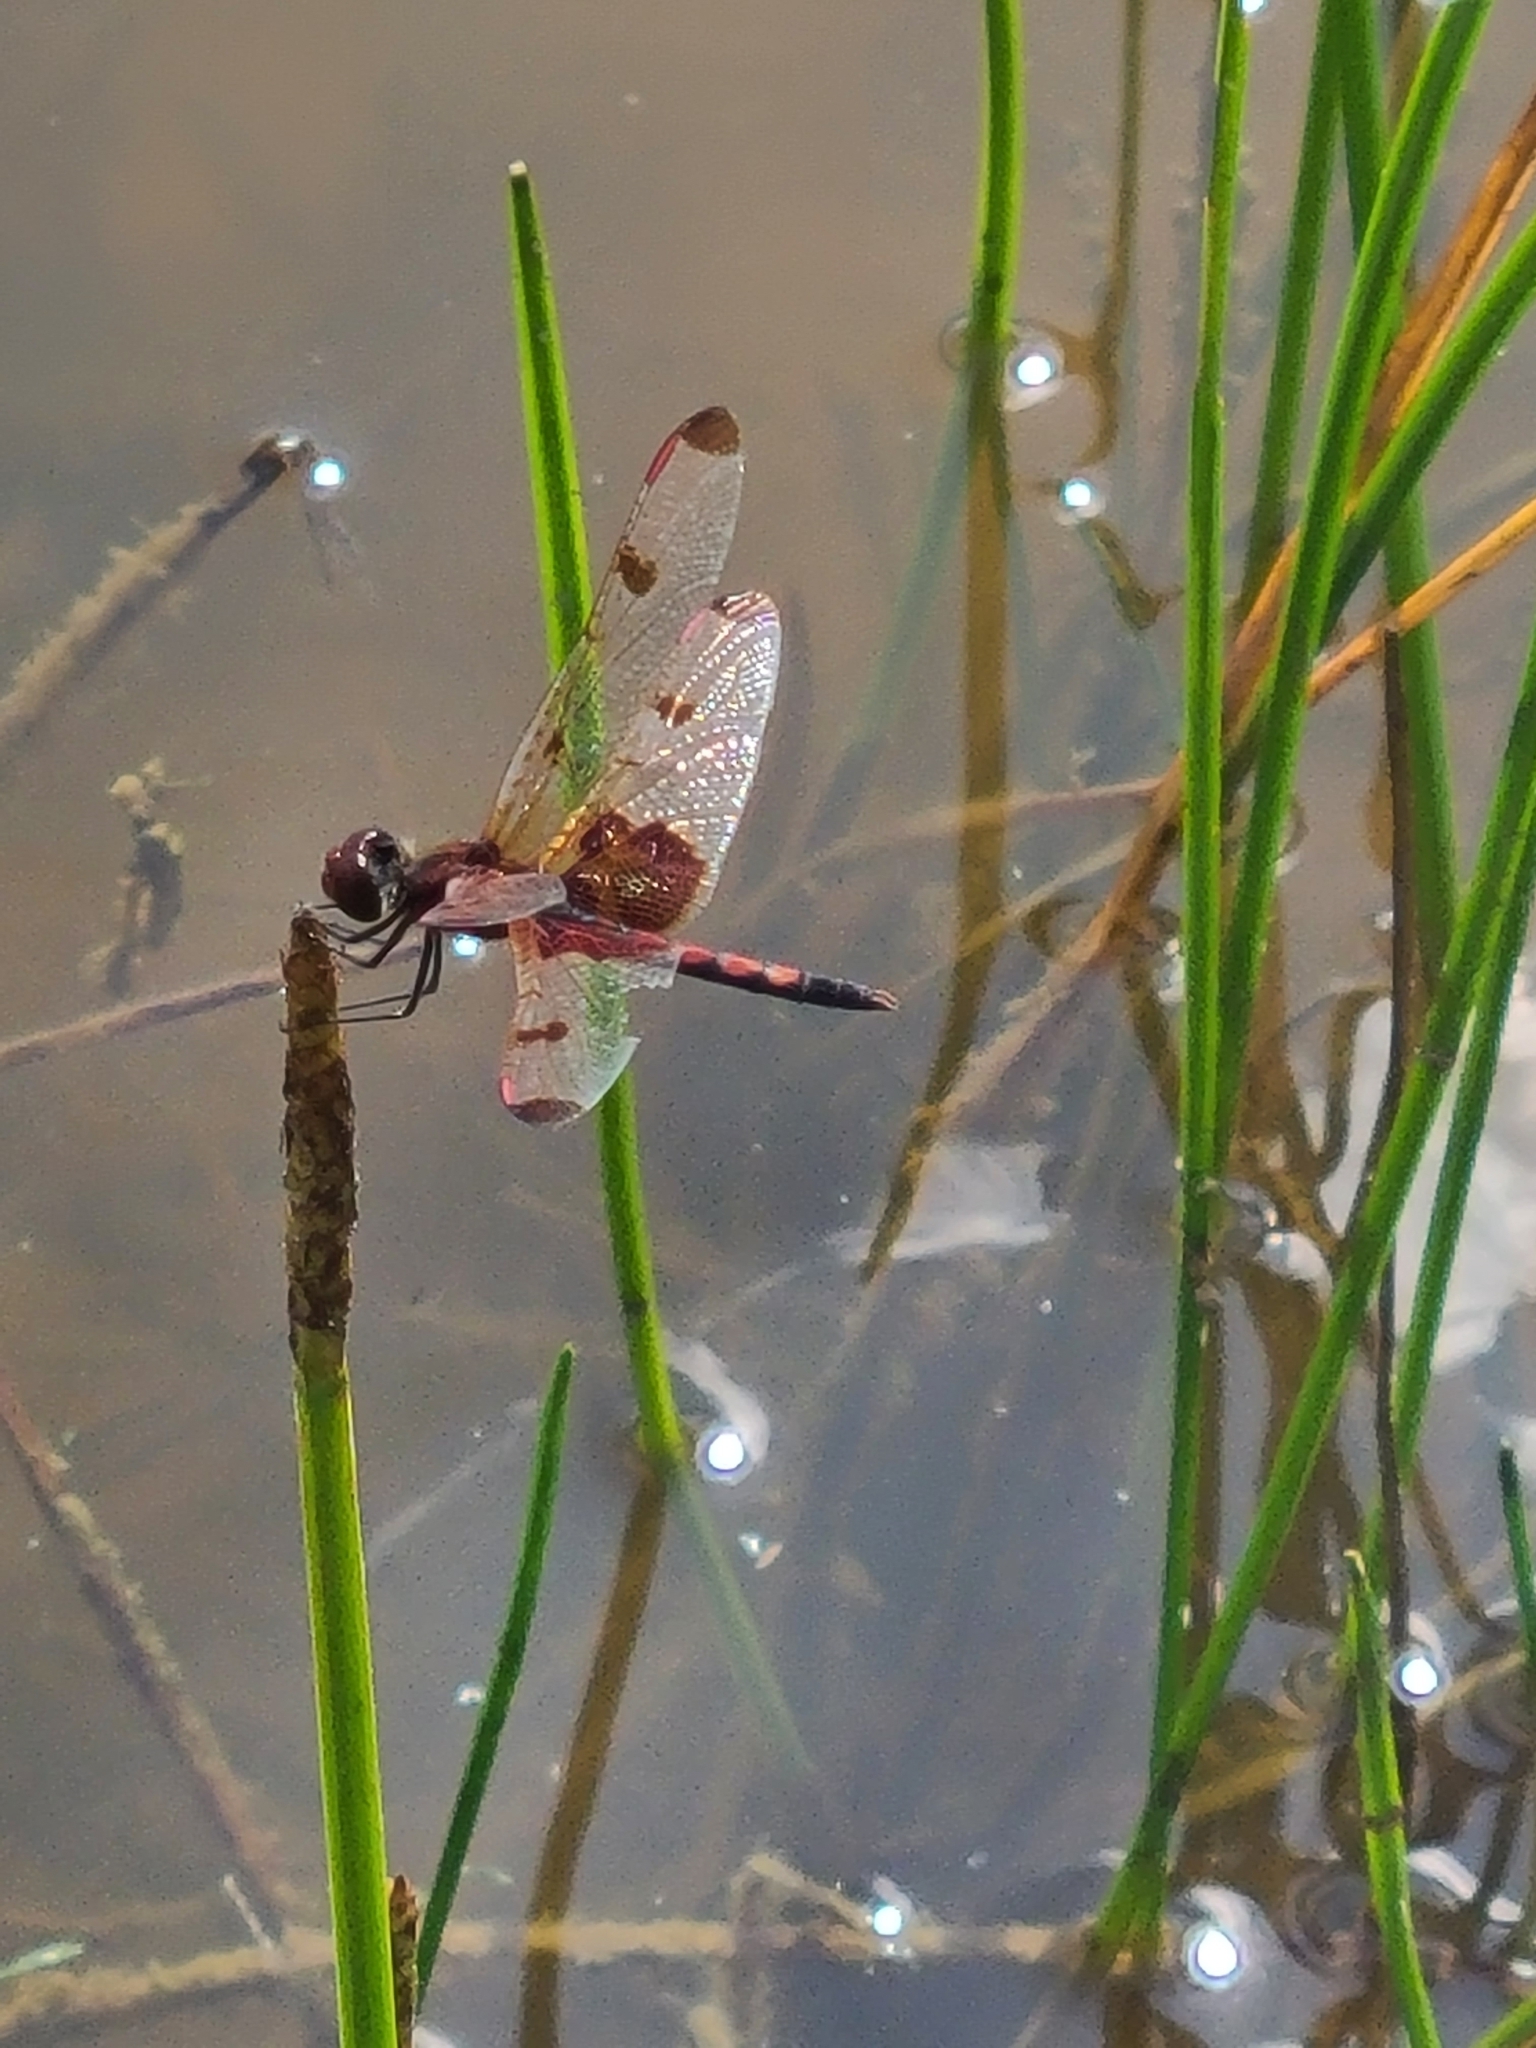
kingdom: Animalia
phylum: Arthropoda
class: Insecta
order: Odonata
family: Libellulidae
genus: Celithemis
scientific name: Celithemis elisa
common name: Calico pennant
